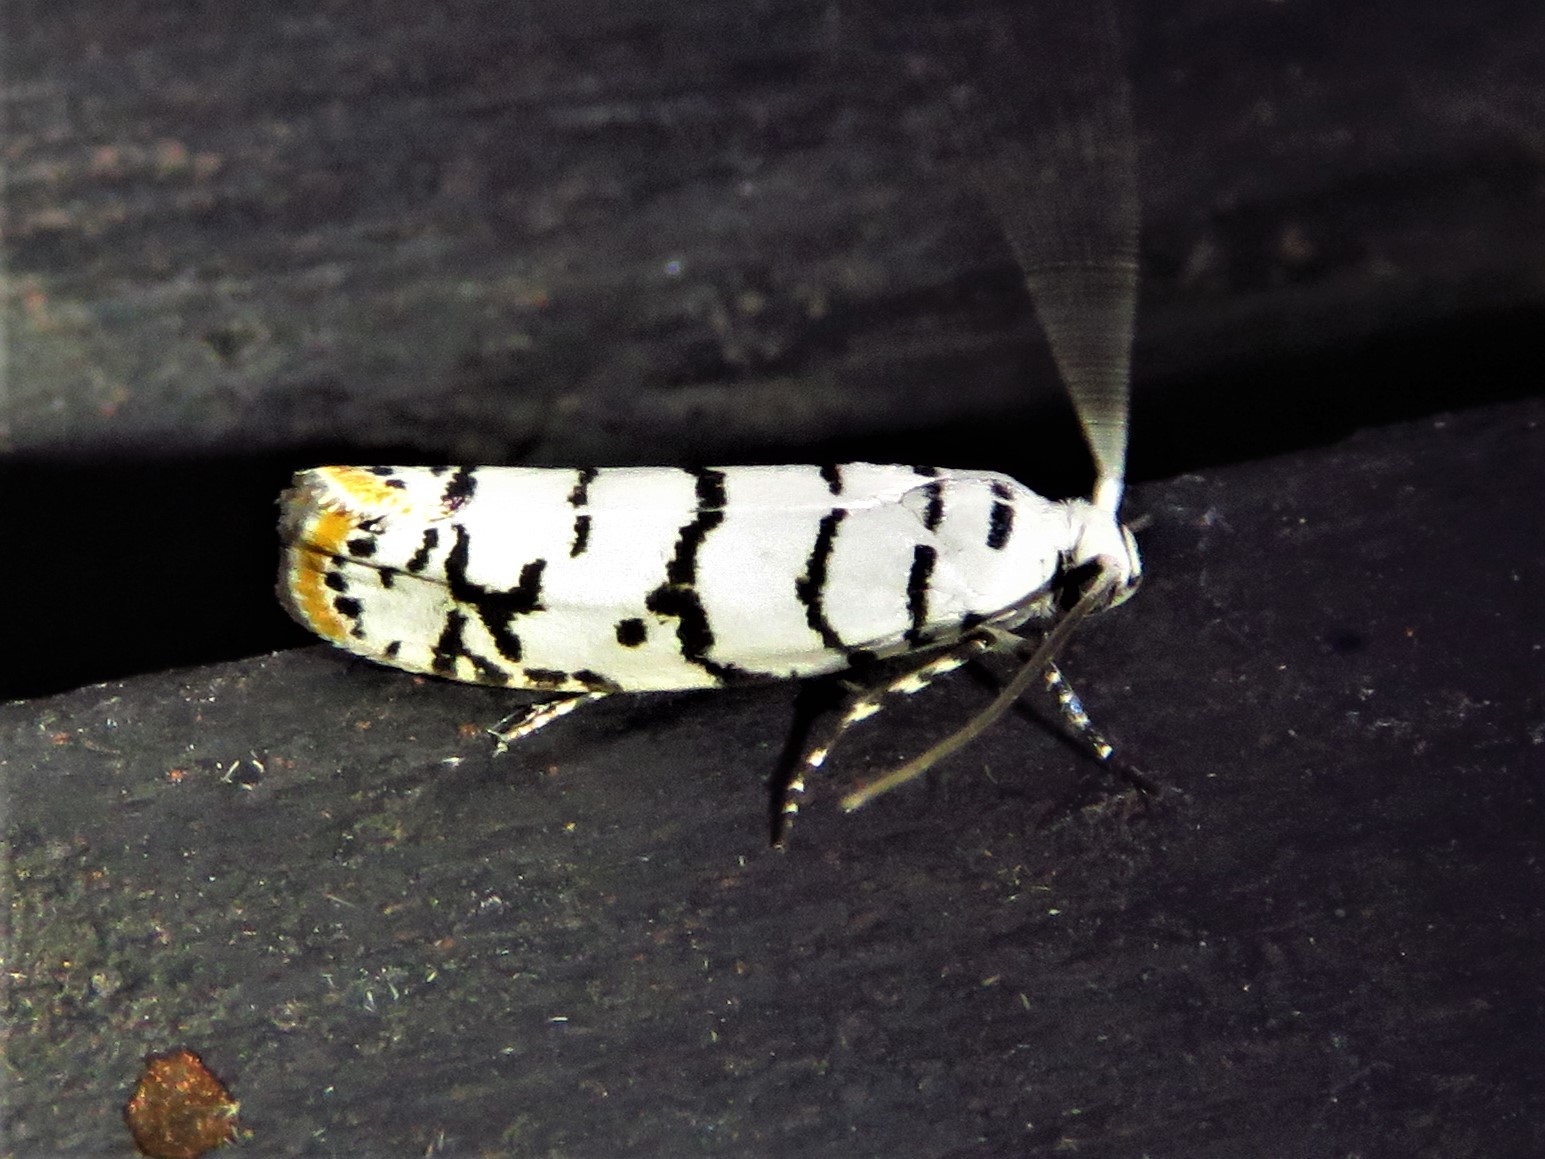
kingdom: Animalia
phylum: Arthropoda
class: Insecta
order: Lepidoptera
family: Ethmiidae
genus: Ethmia
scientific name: Ethmia delliella
